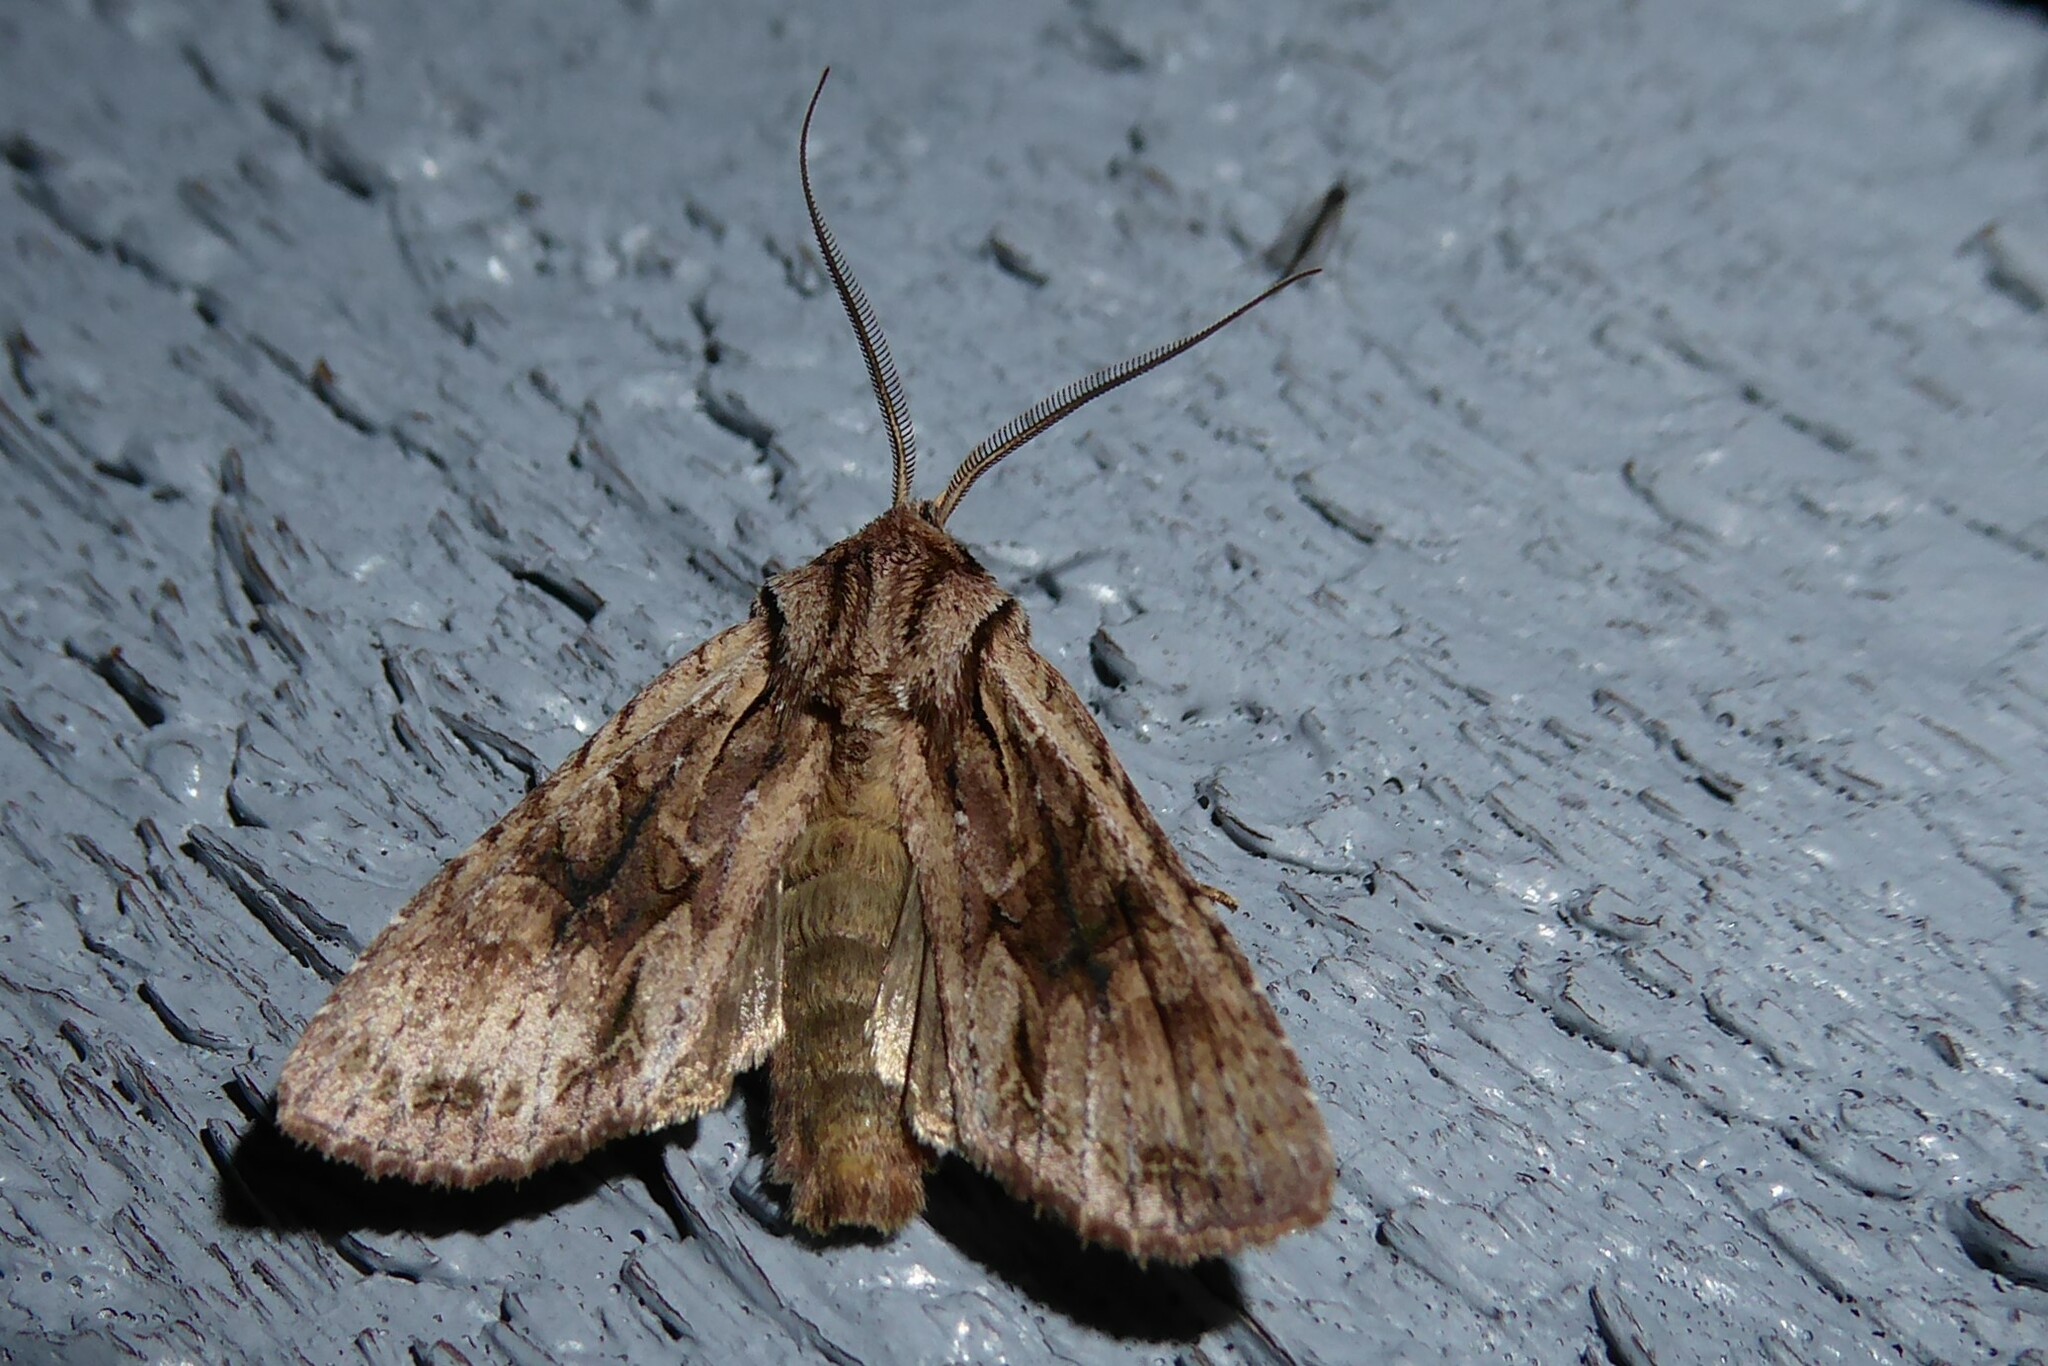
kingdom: Animalia
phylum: Arthropoda
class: Insecta
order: Lepidoptera
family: Noctuidae
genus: Ichneutica
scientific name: Ichneutica
